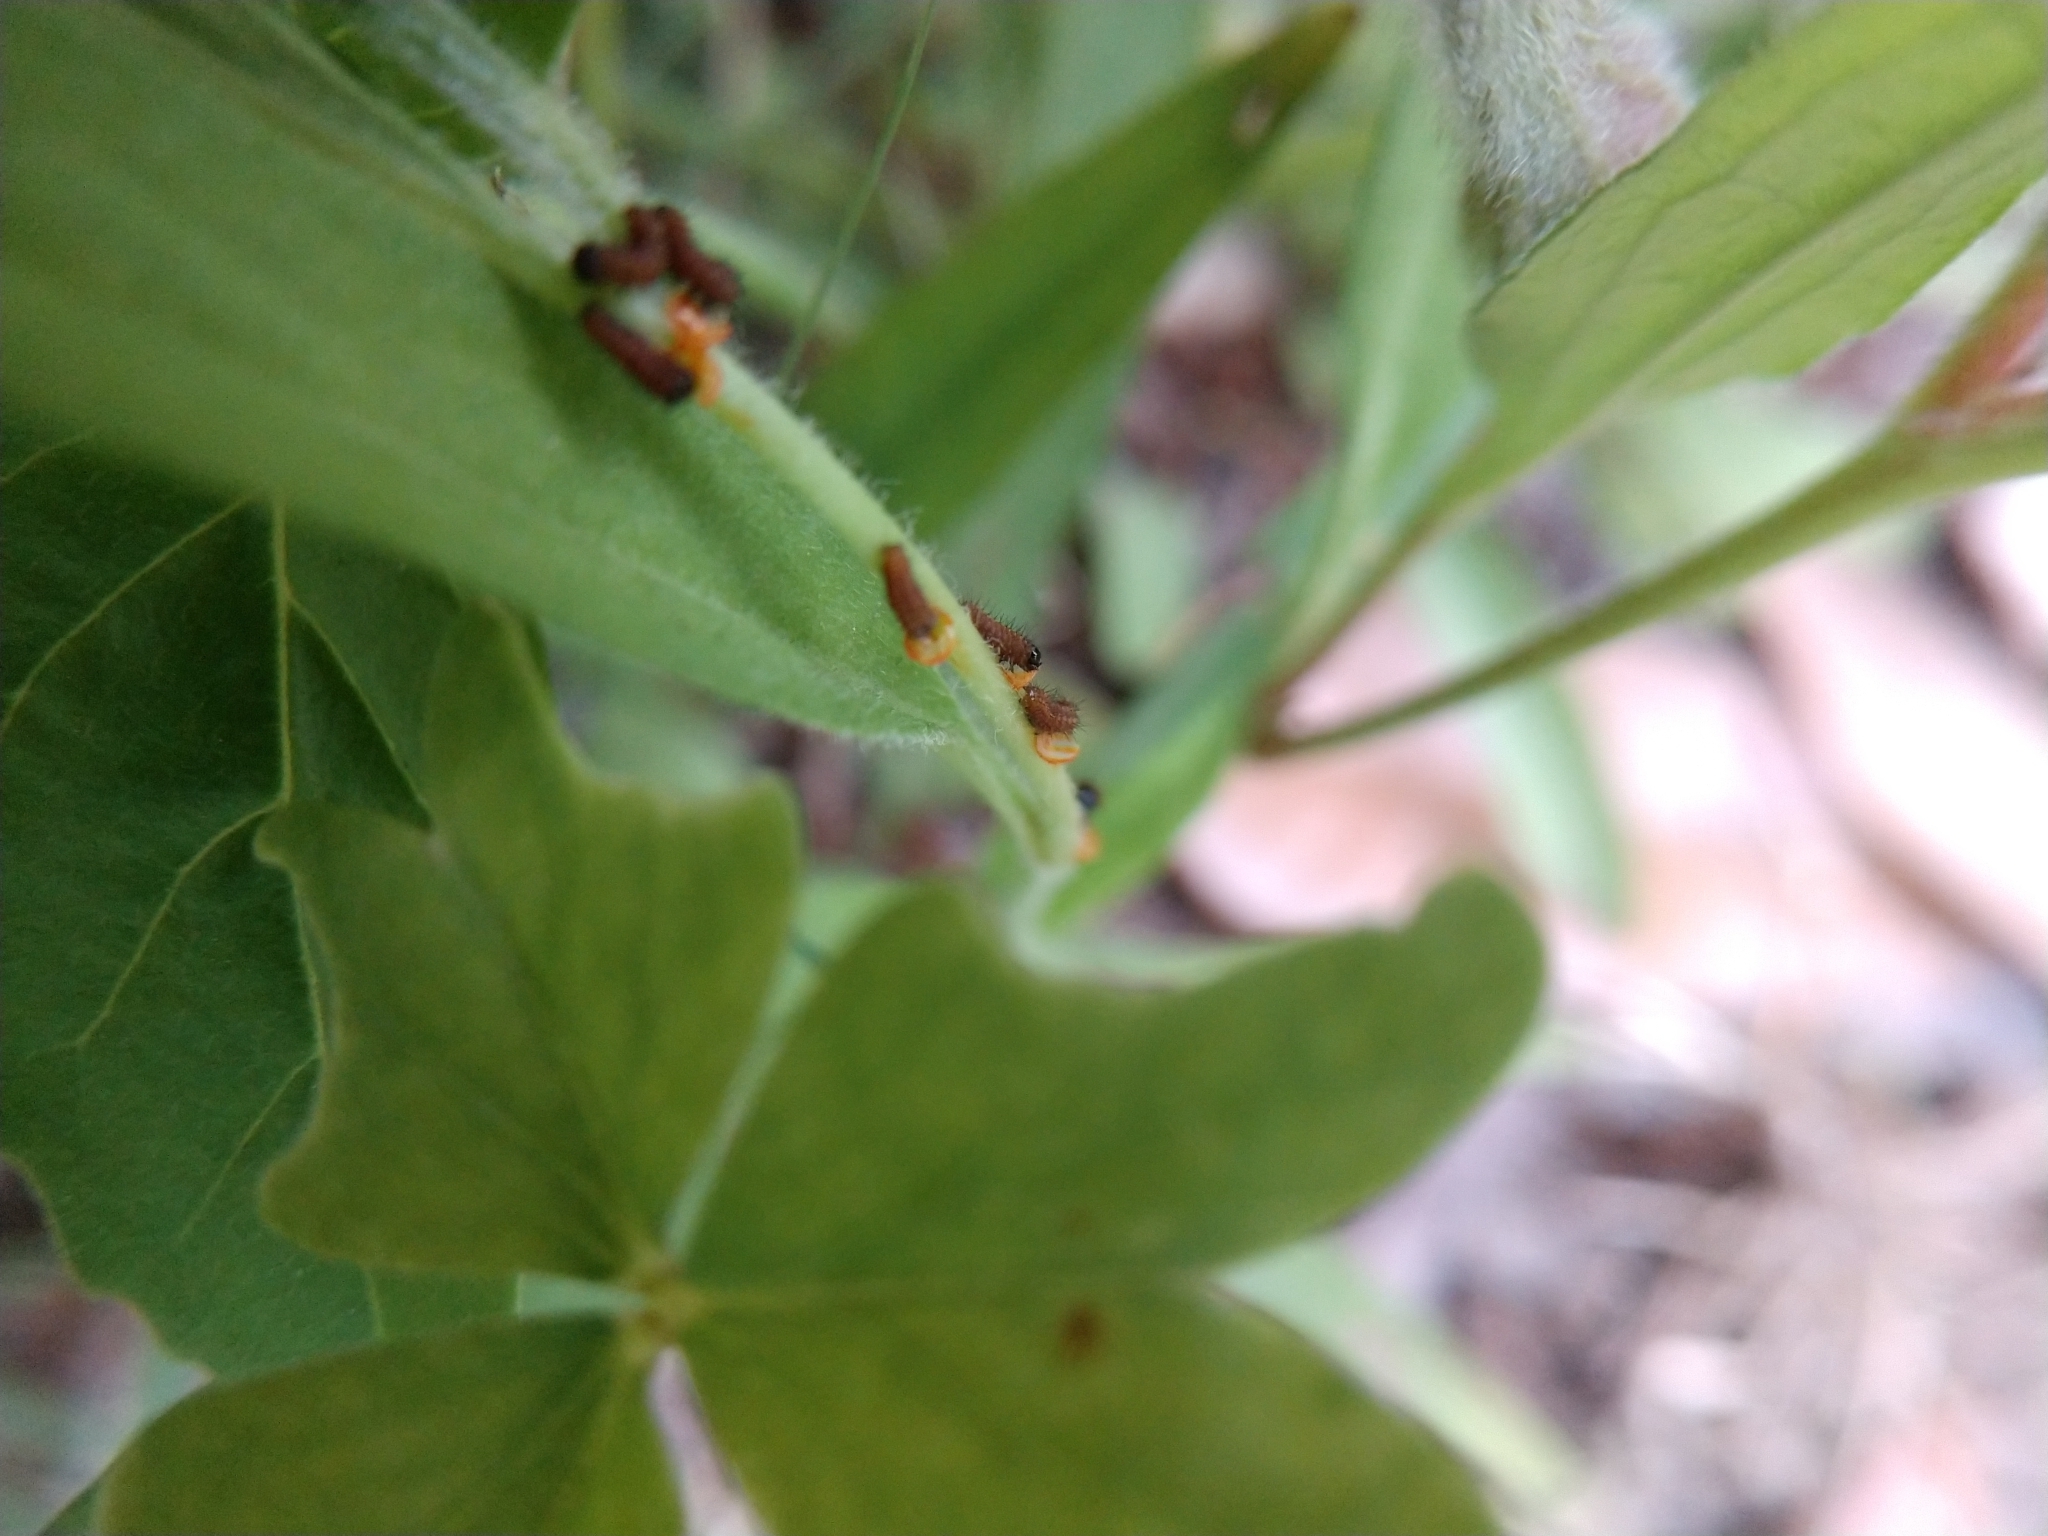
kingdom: Animalia
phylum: Arthropoda
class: Insecta
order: Lepidoptera
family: Papilionidae
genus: Battus
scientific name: Battus philenor
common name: Pipevine swallowtail
